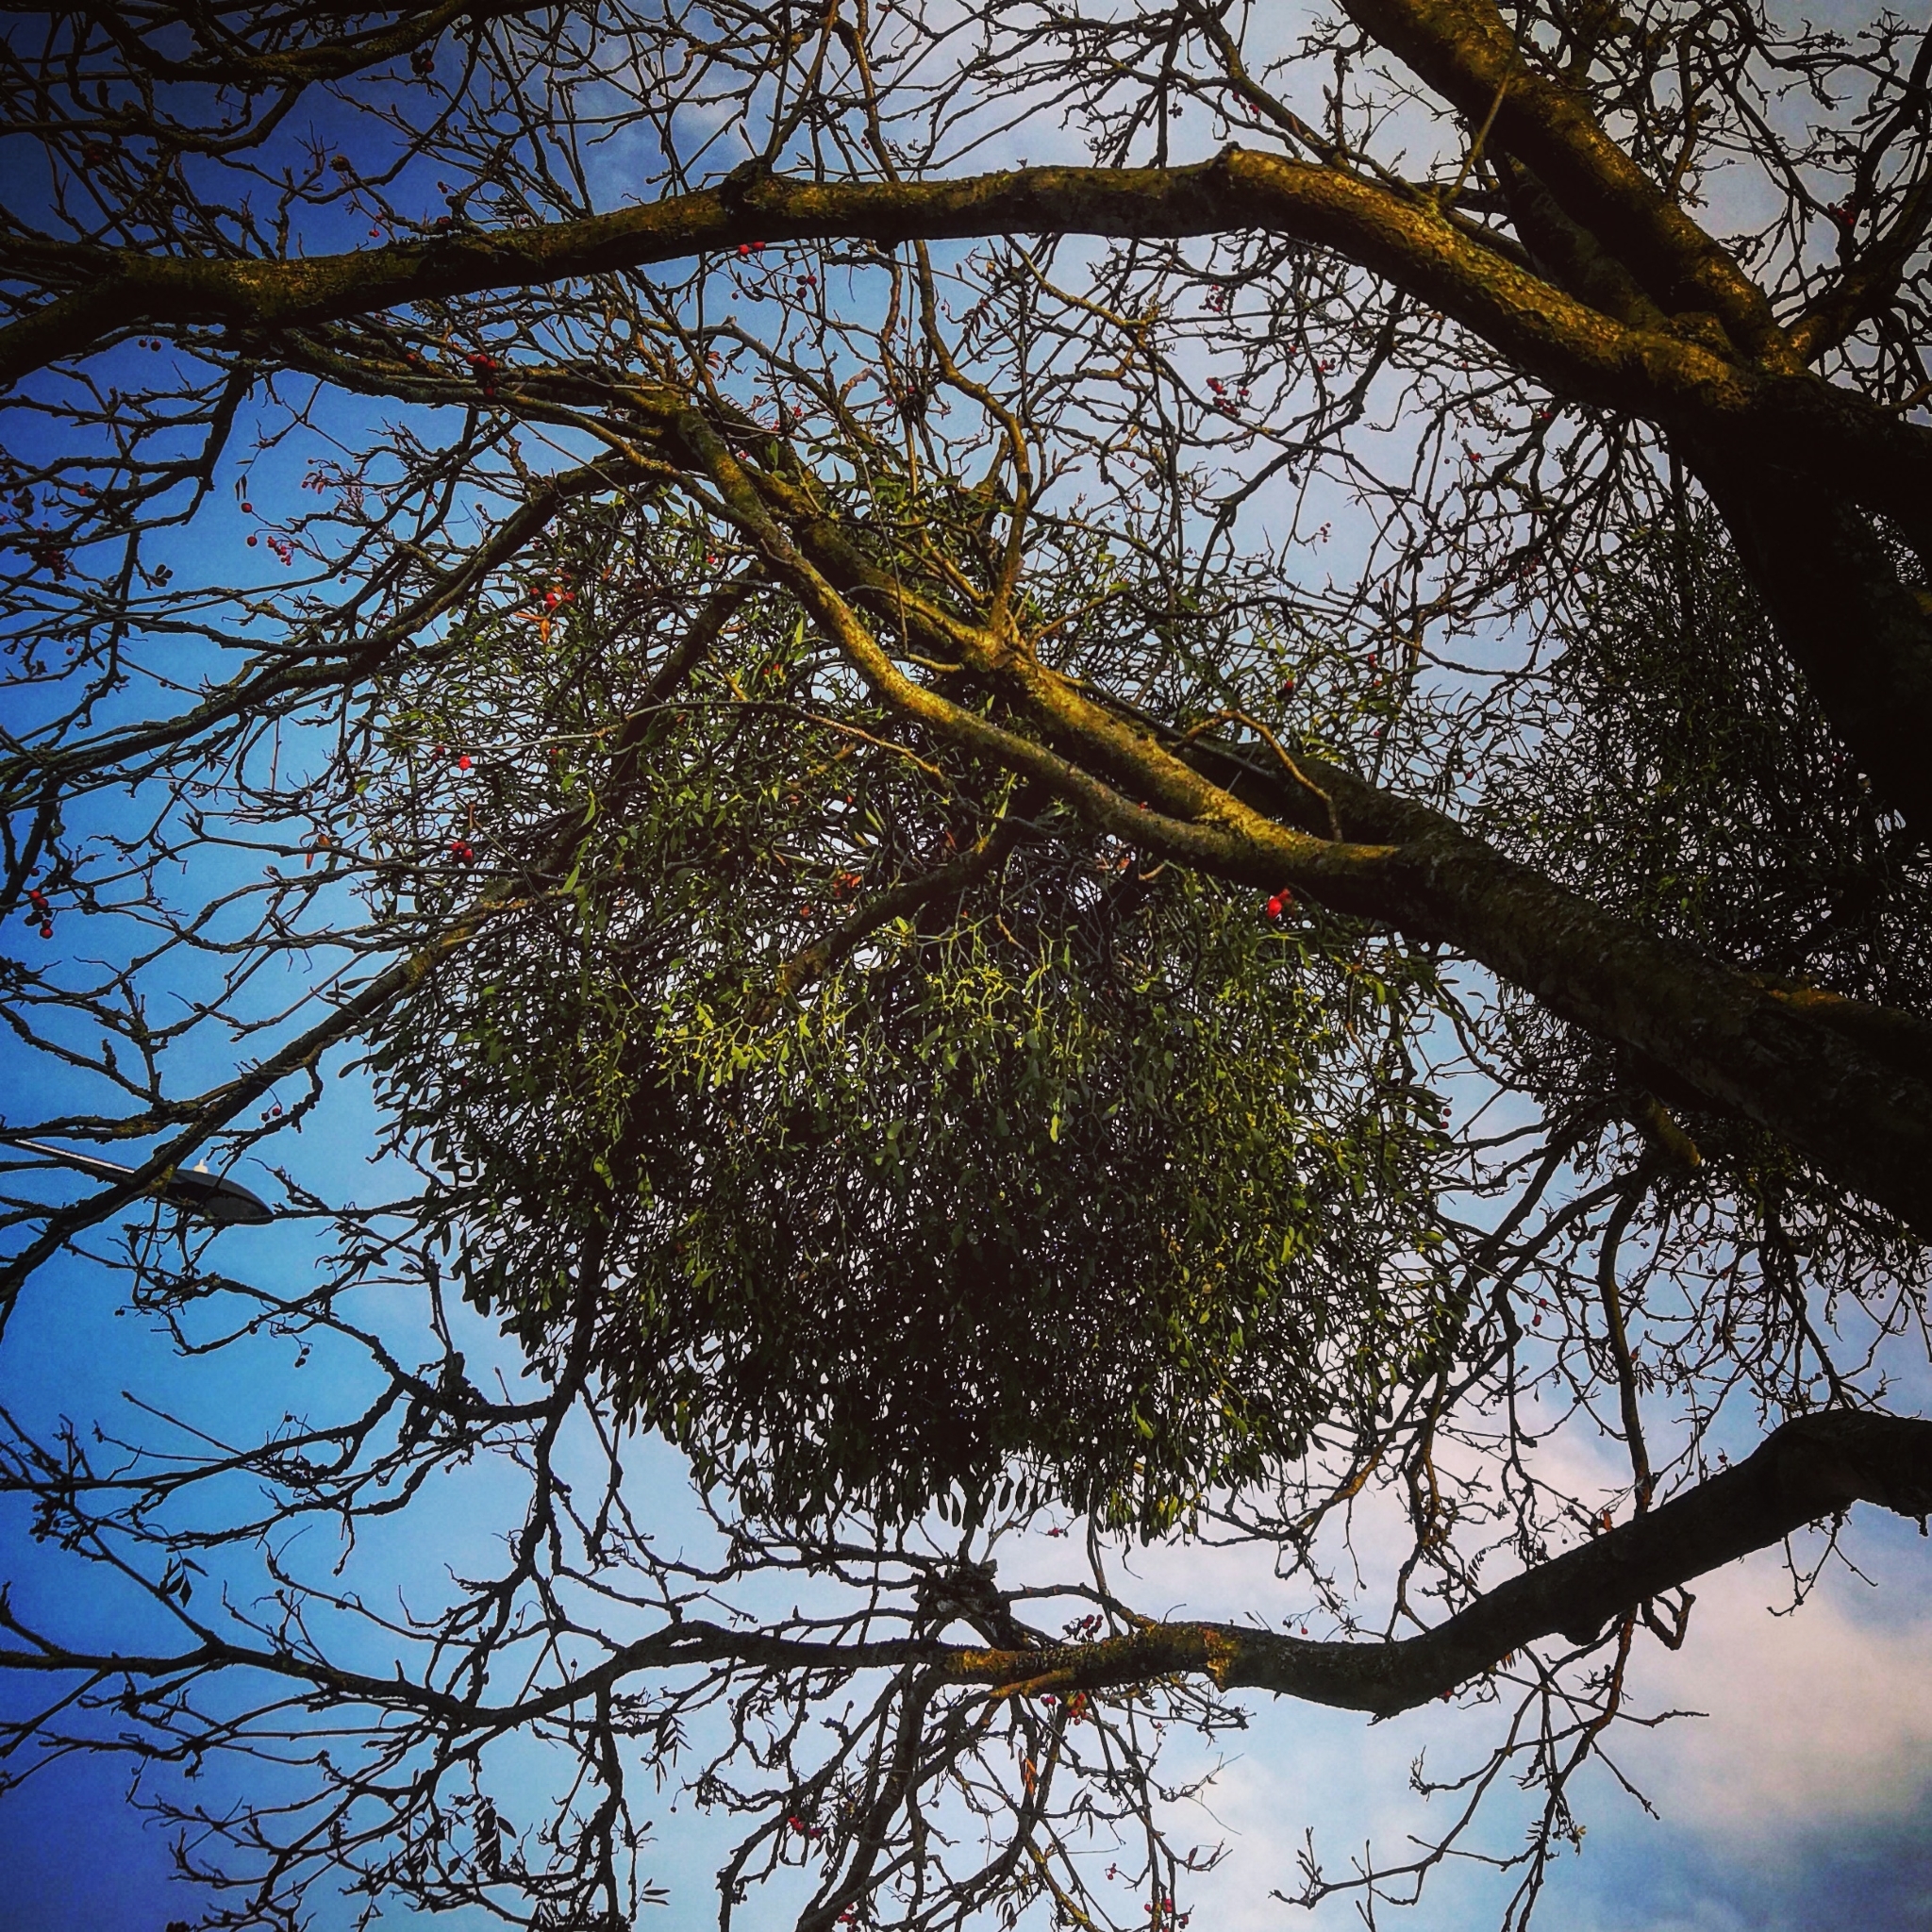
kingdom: Plantae
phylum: Tracheophyta
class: Magnoliopsida
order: Santalales
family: Viscaceae
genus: Viscum
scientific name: Viscum album
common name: Mistletoe
